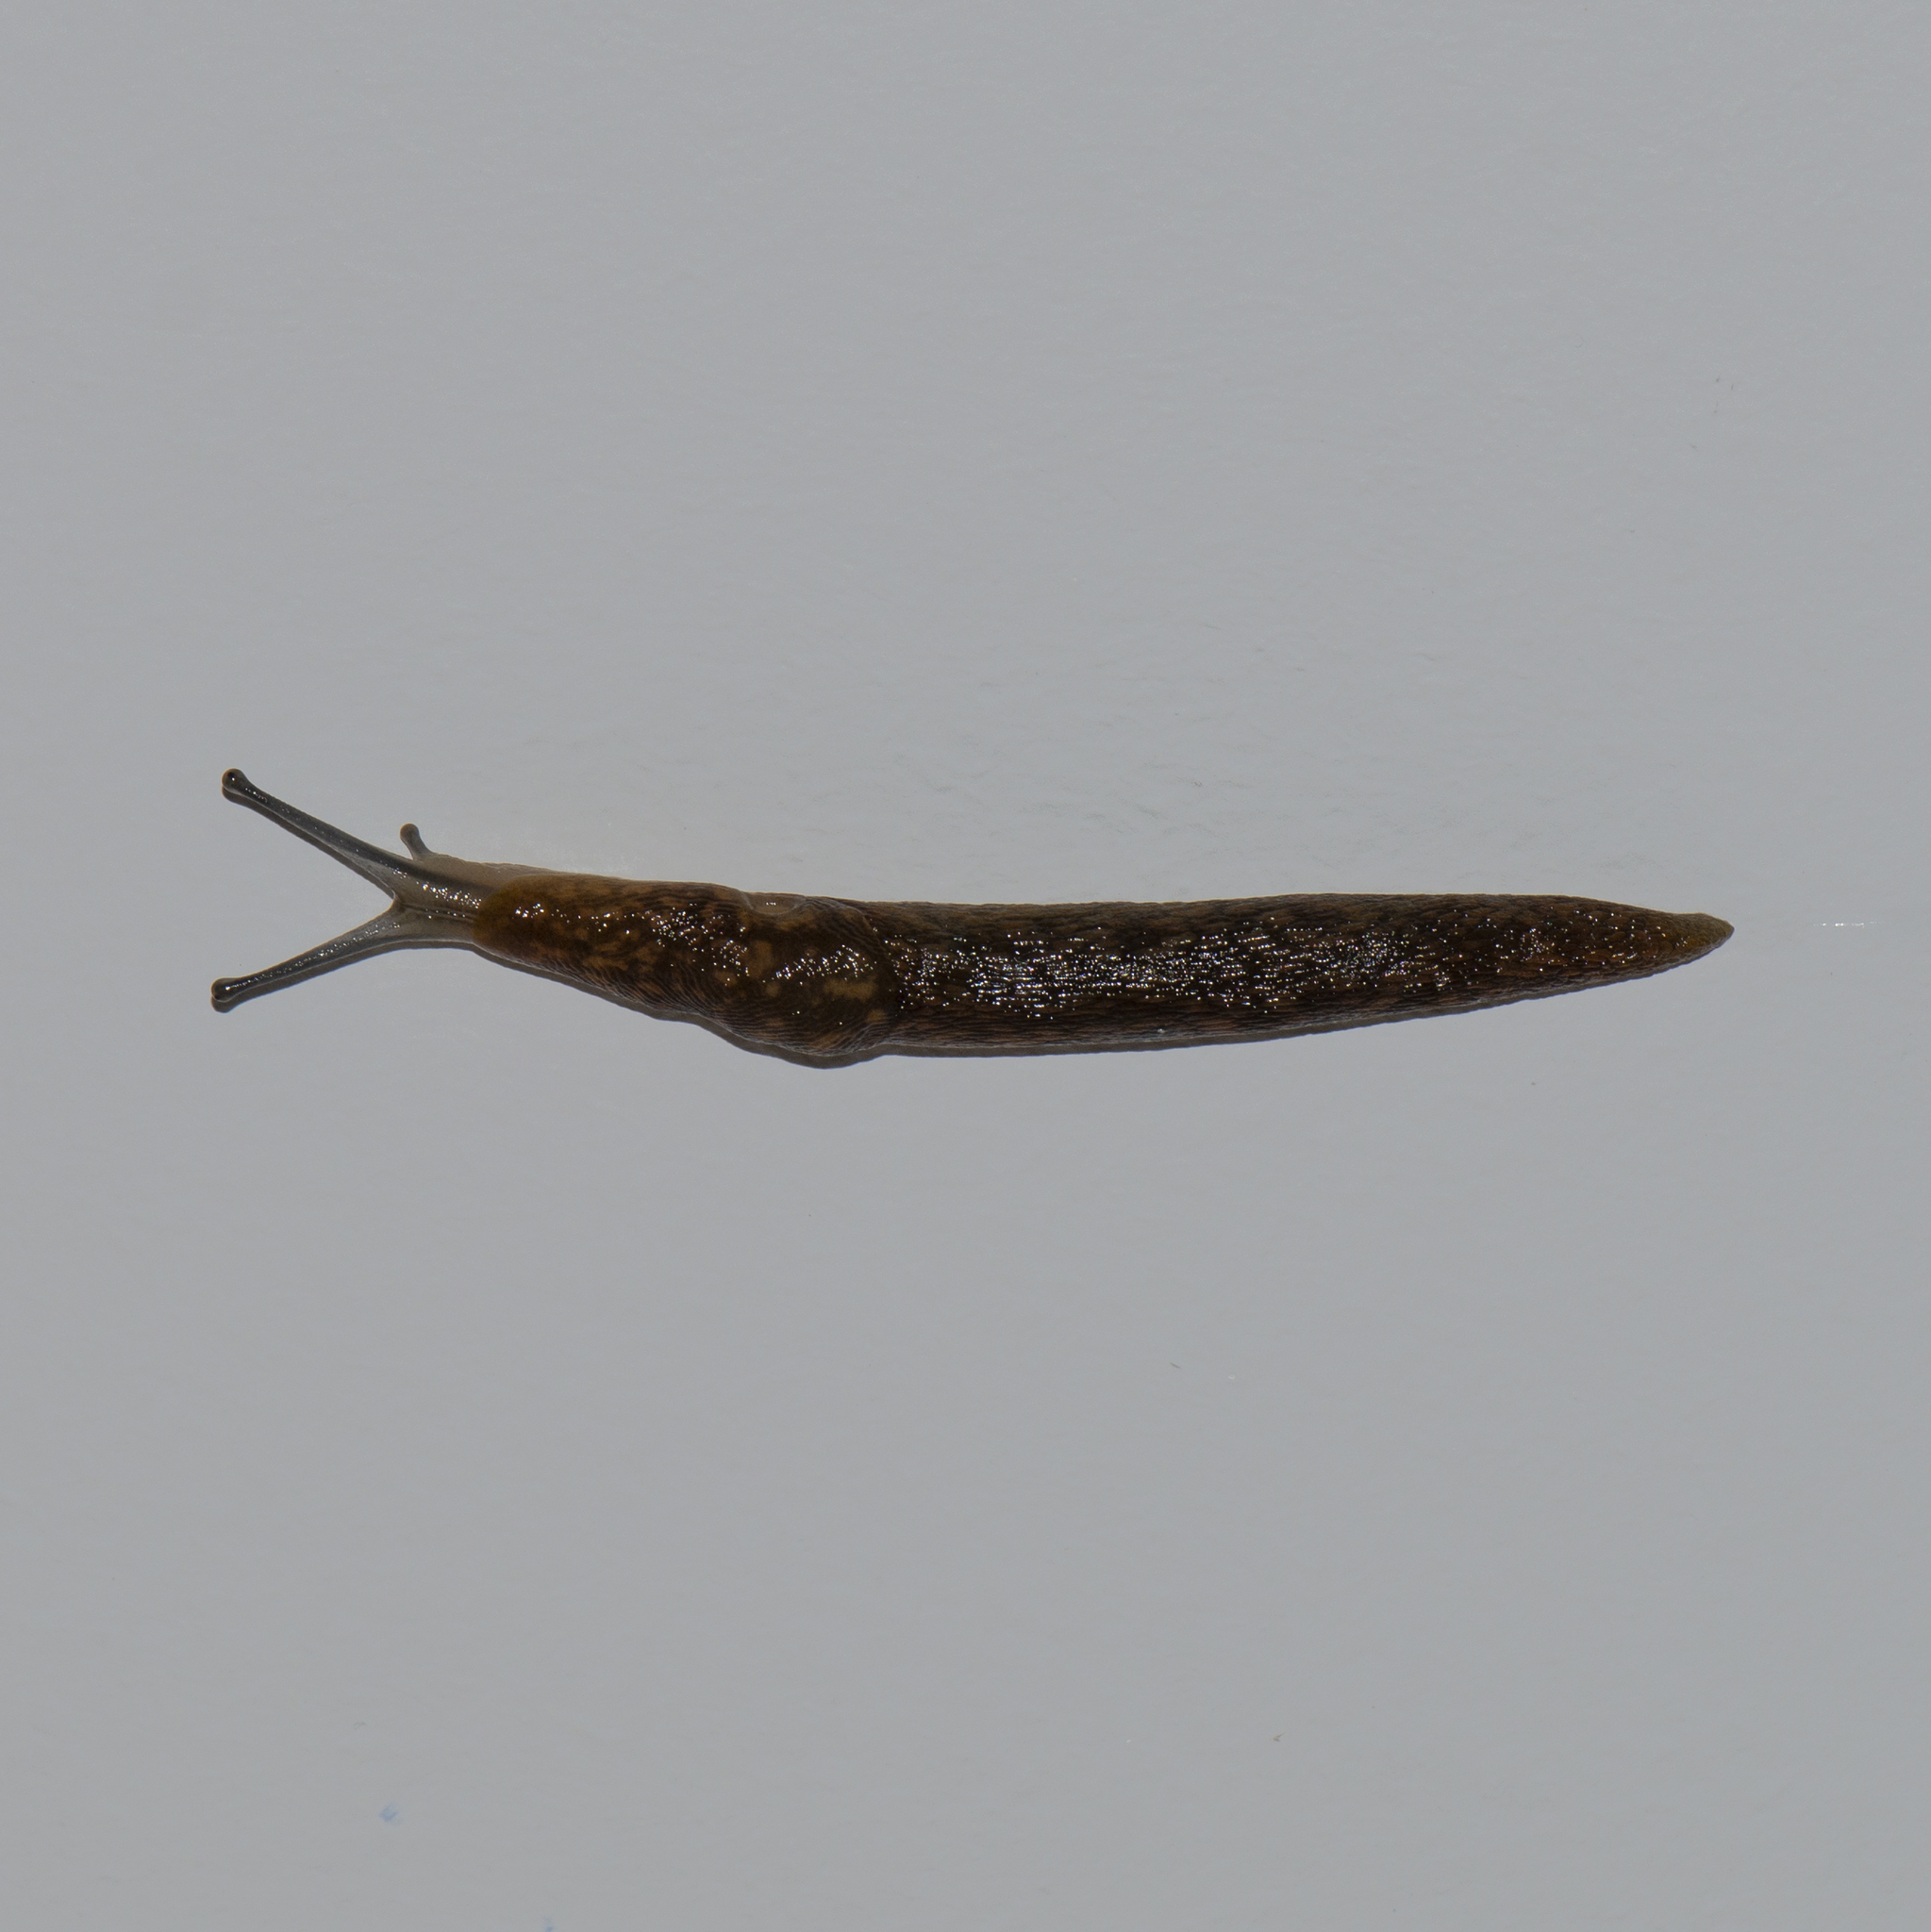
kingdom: Animalia
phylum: Mollusca
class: Gastropoda
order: Stylommatophora
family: Limacidae
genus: Limacus
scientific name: Limacus flavus
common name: Yellow gardenslug
